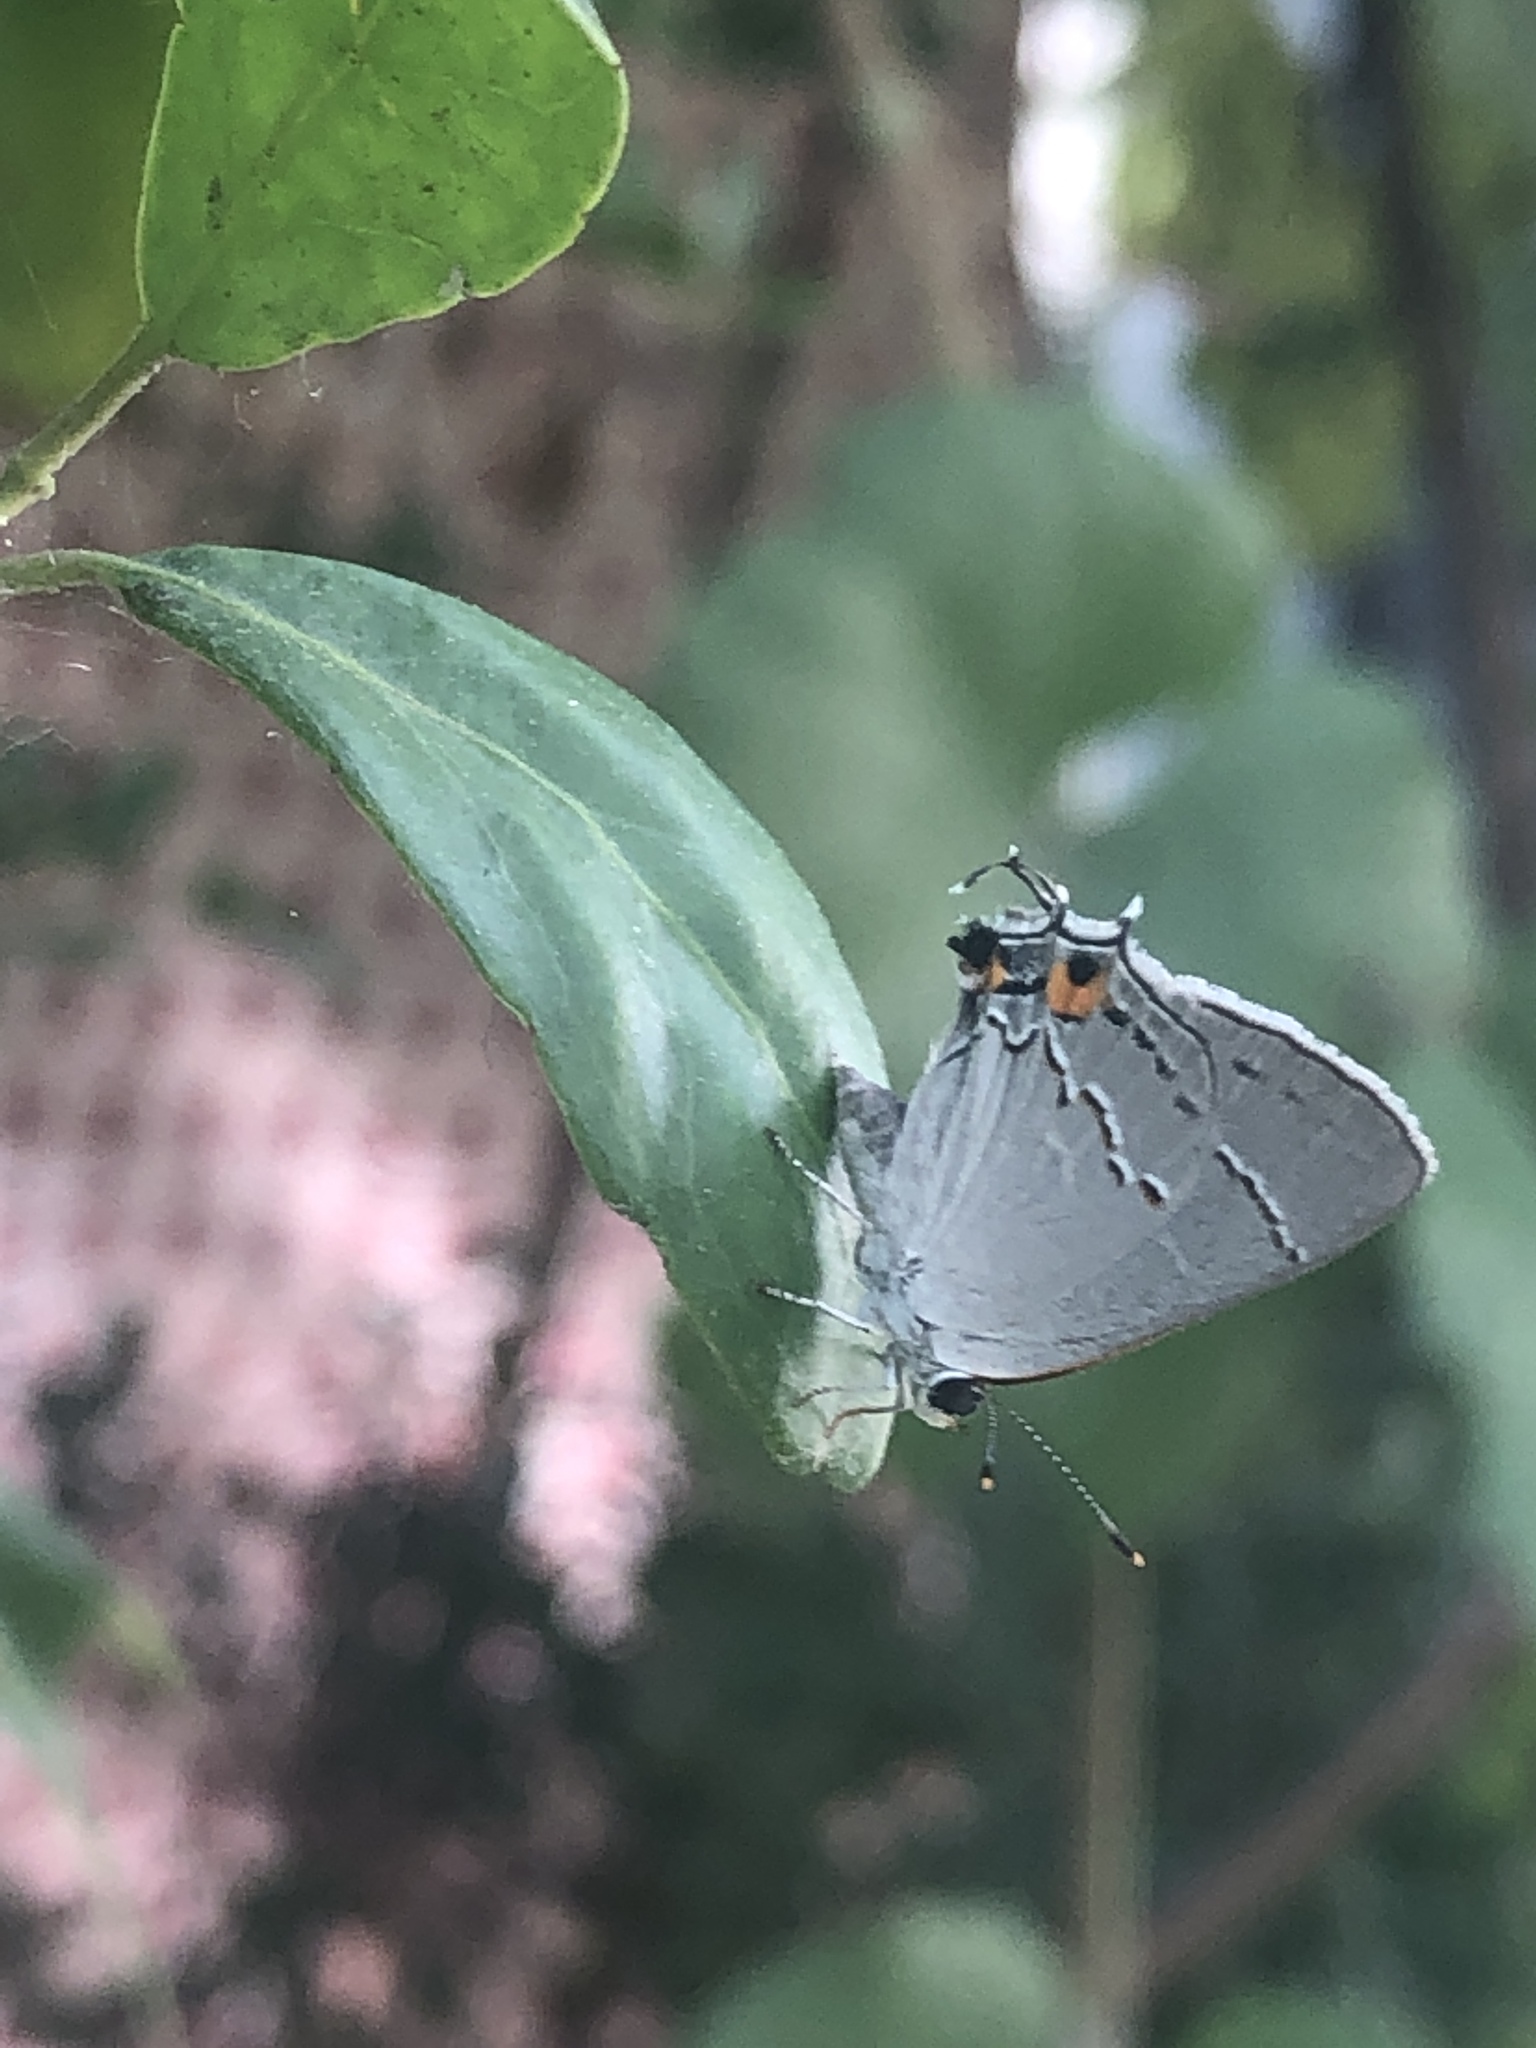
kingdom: Animalia
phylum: Arthropoda
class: Insecta
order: Lepidoptera
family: Lycaenidae
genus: Strymon
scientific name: Strymon melinus
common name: Gray hairstreak
